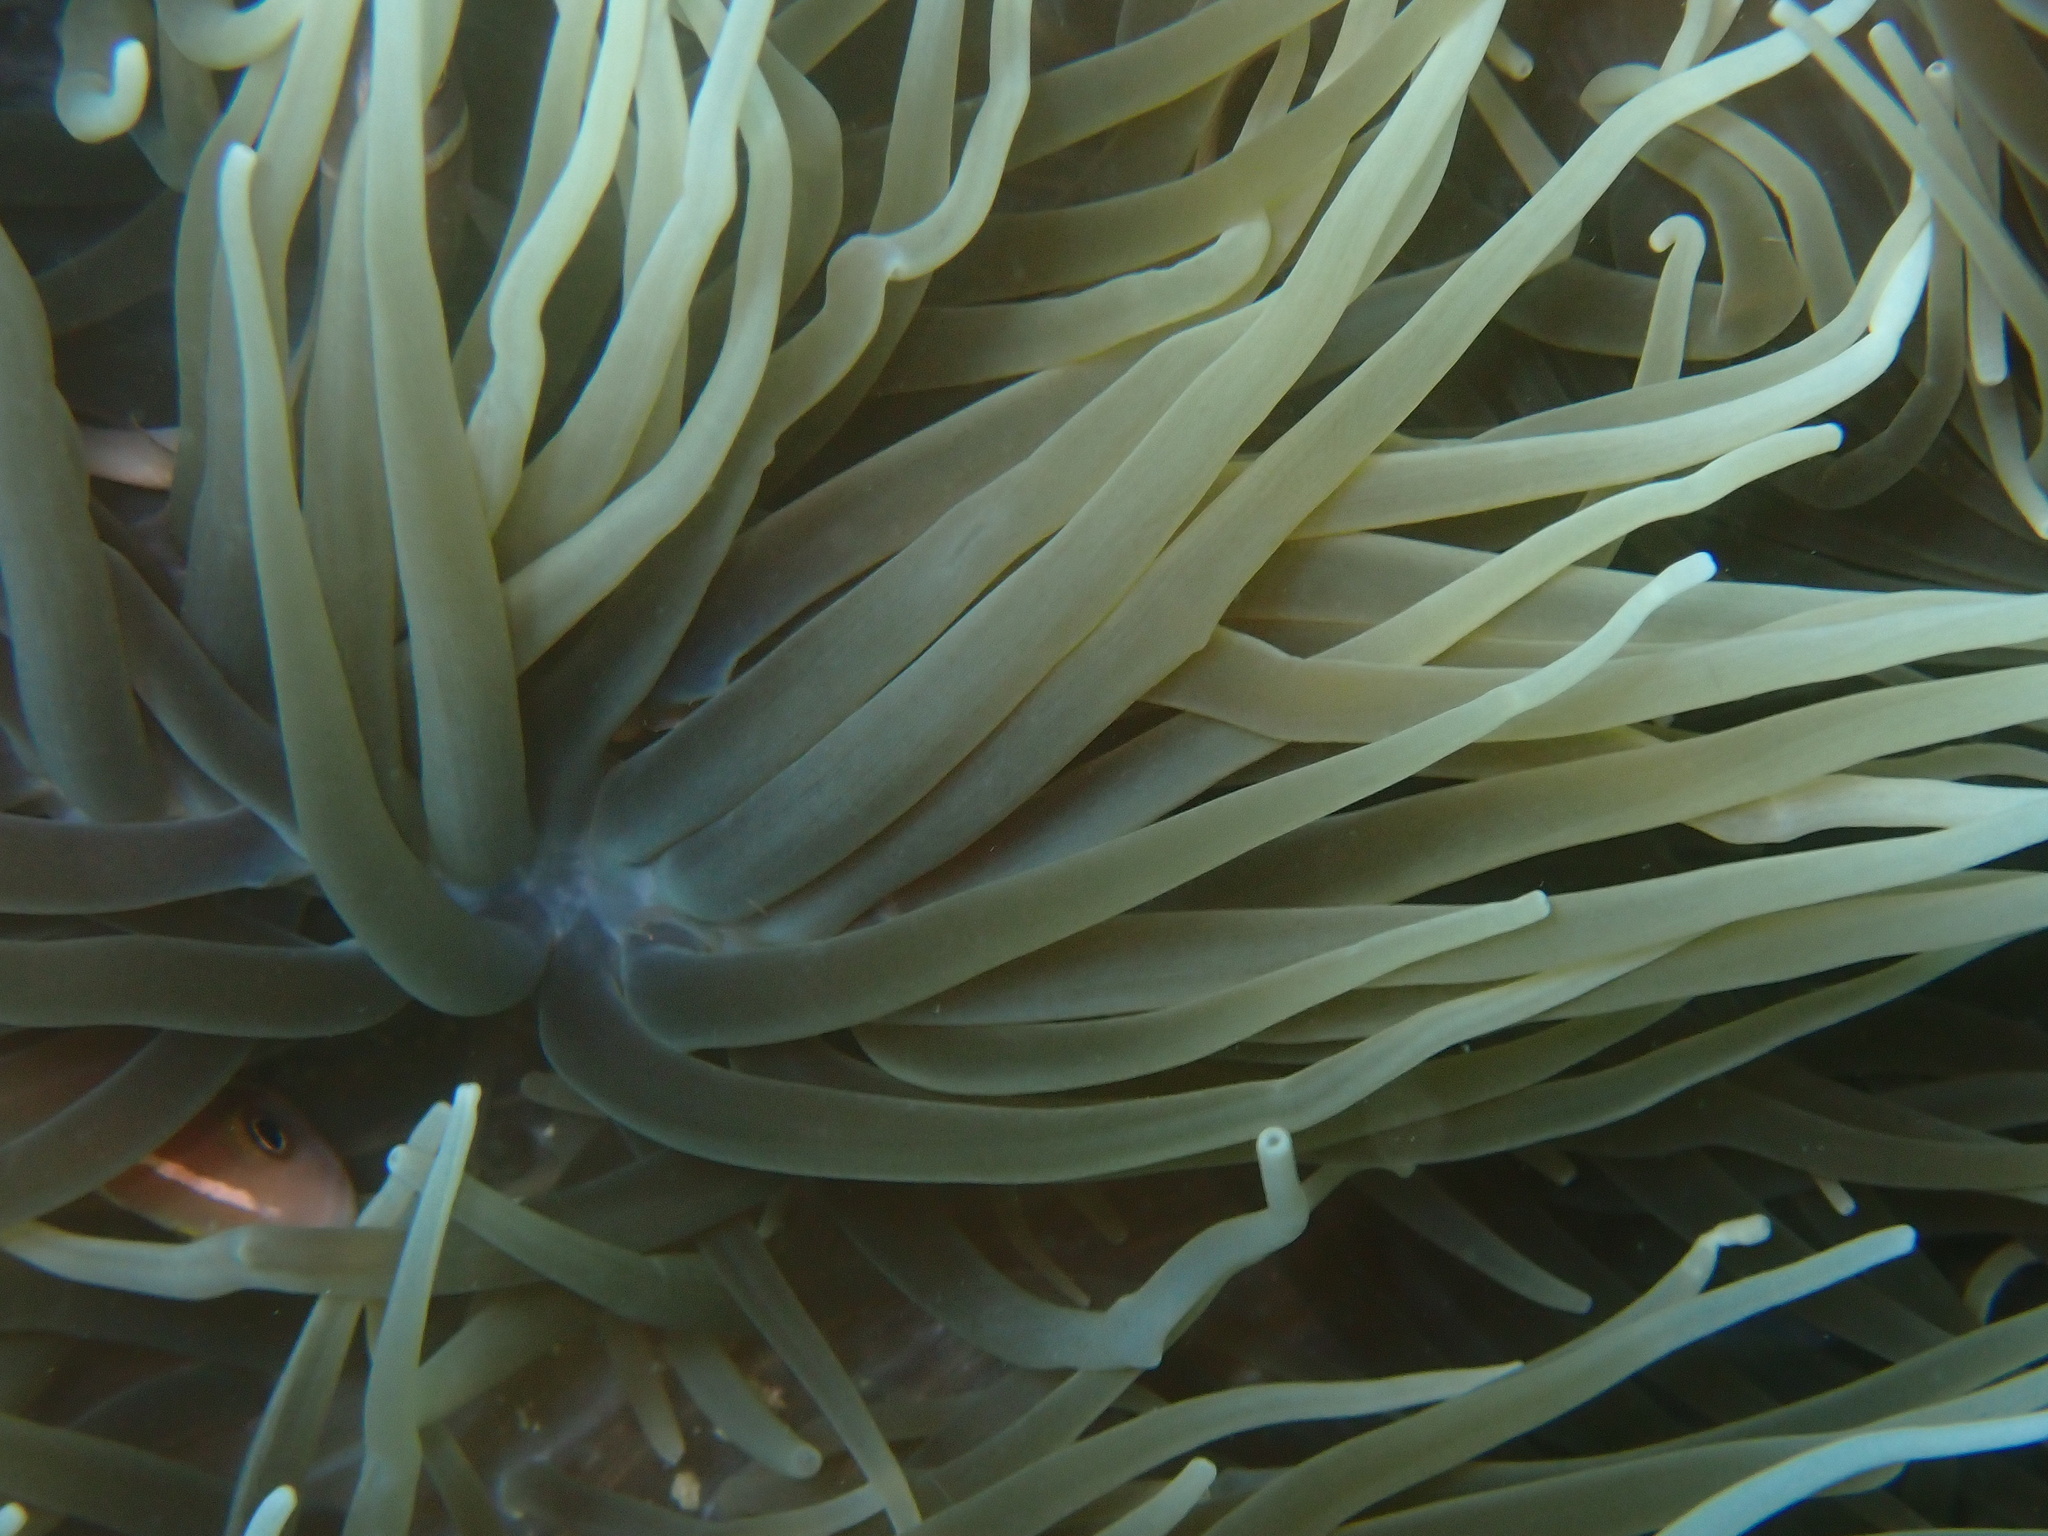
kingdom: Animalia
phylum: Cnidaria
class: Anthozoa
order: Actiniaria
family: Stichodactylidae
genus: Radianthus
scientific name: Radianthus crispa
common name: Leather anemone
